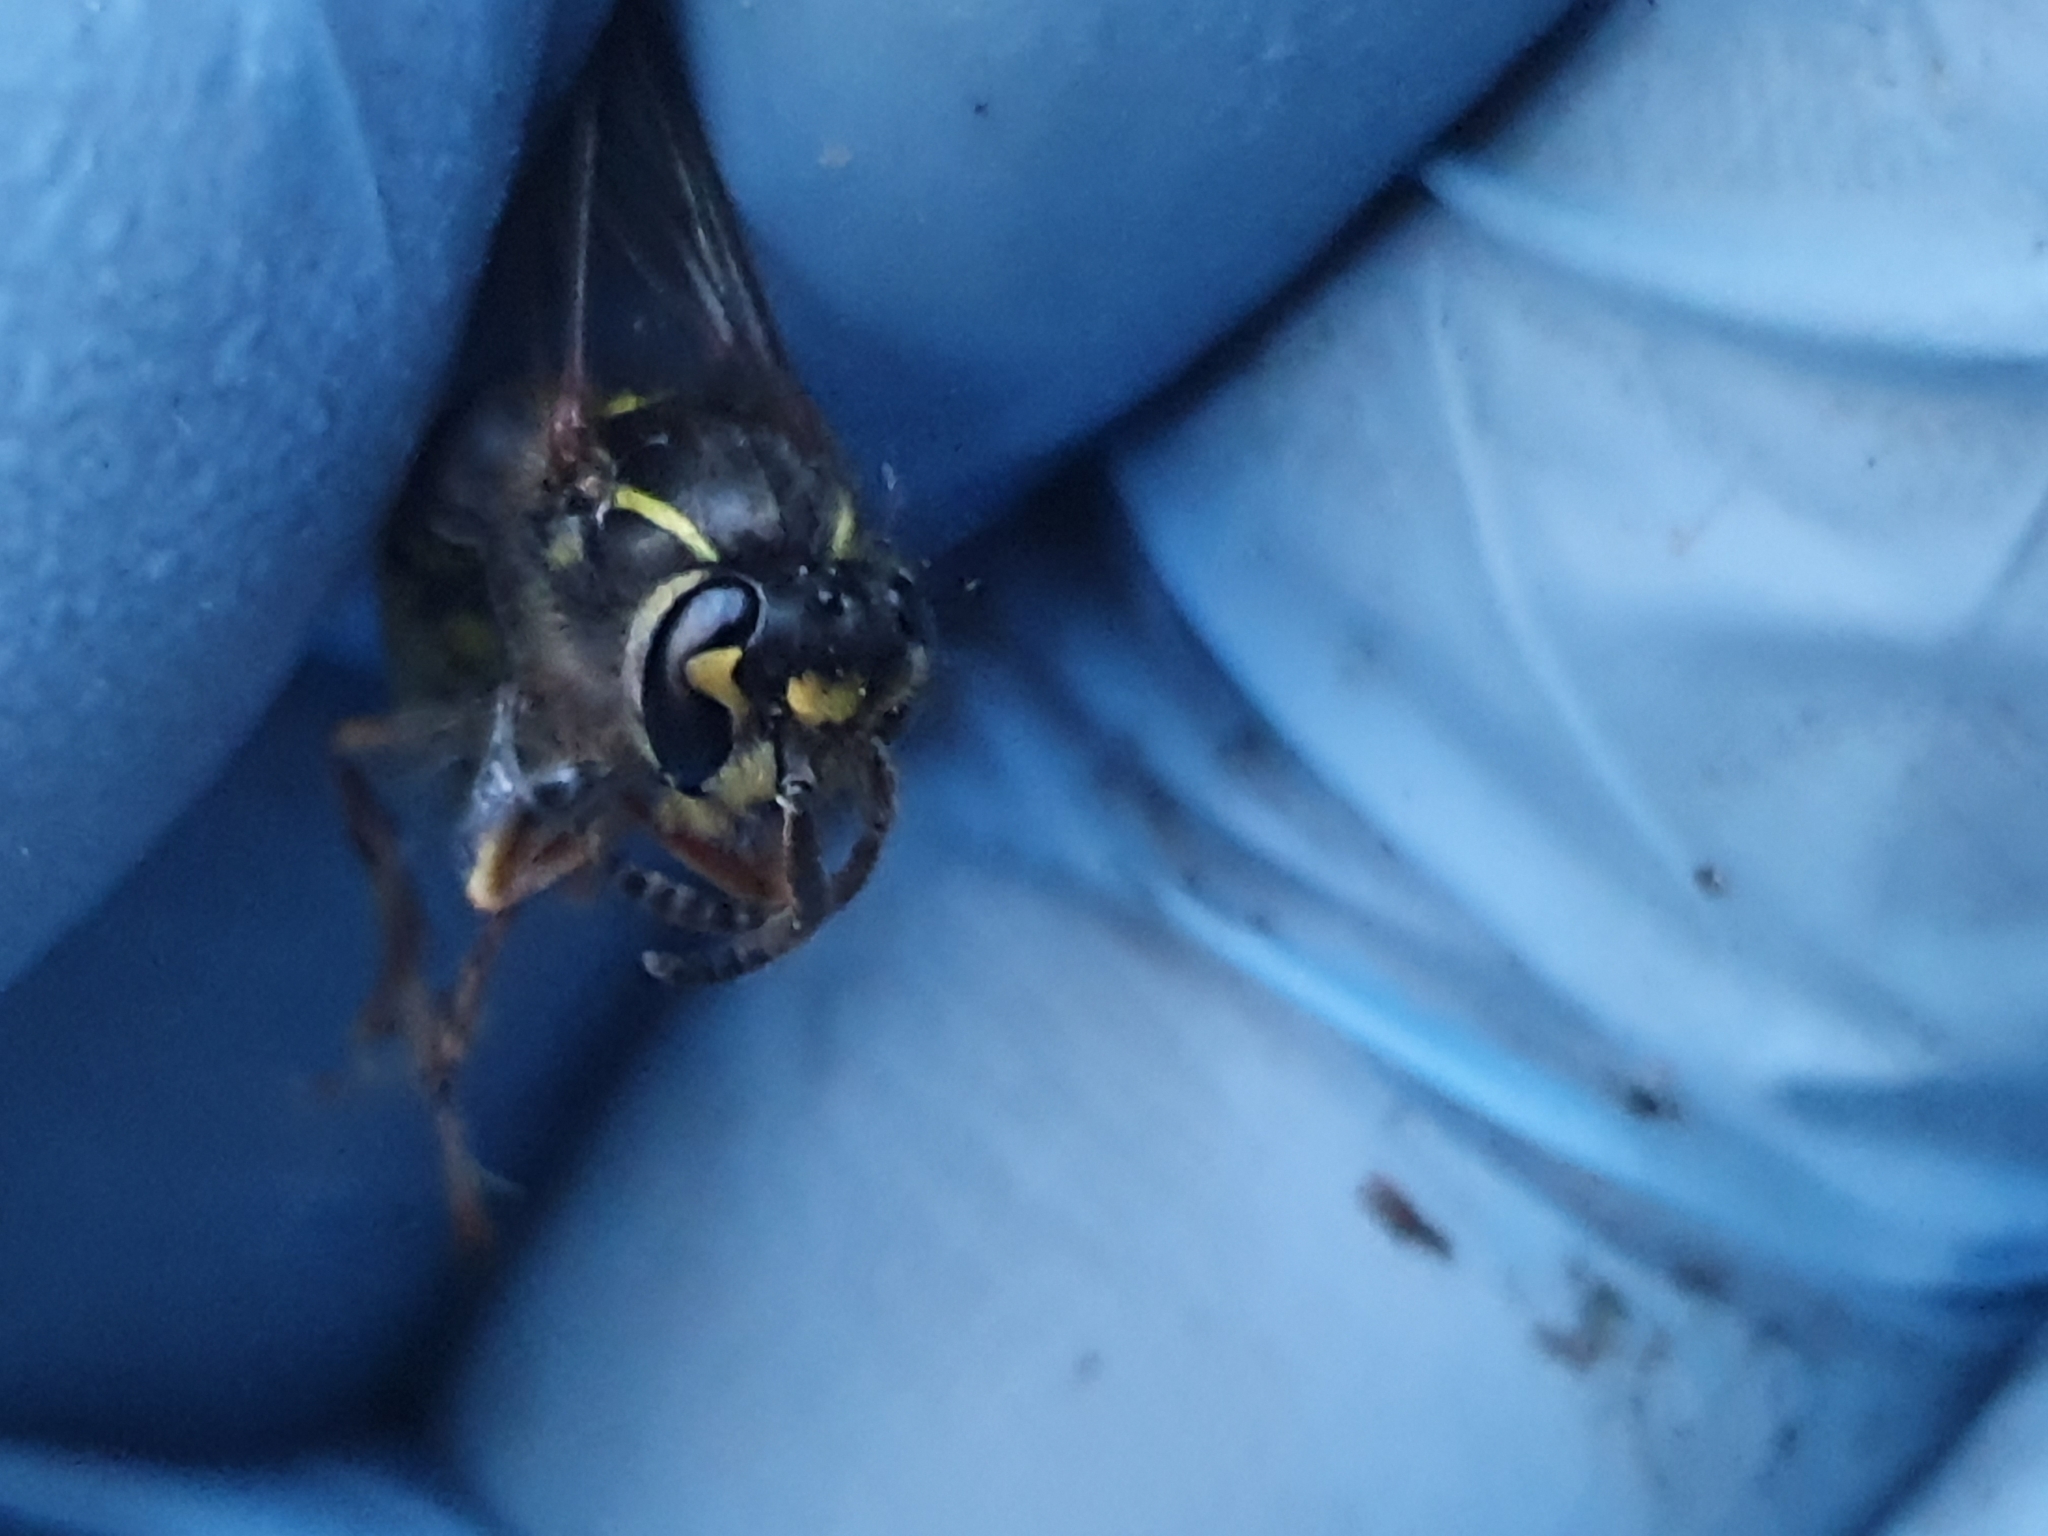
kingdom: Animalia
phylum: Arthropoda
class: Insecta
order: Hymenoptera
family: Vespidae
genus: Vespula
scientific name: Vespula vulgaris
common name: Common wasp
